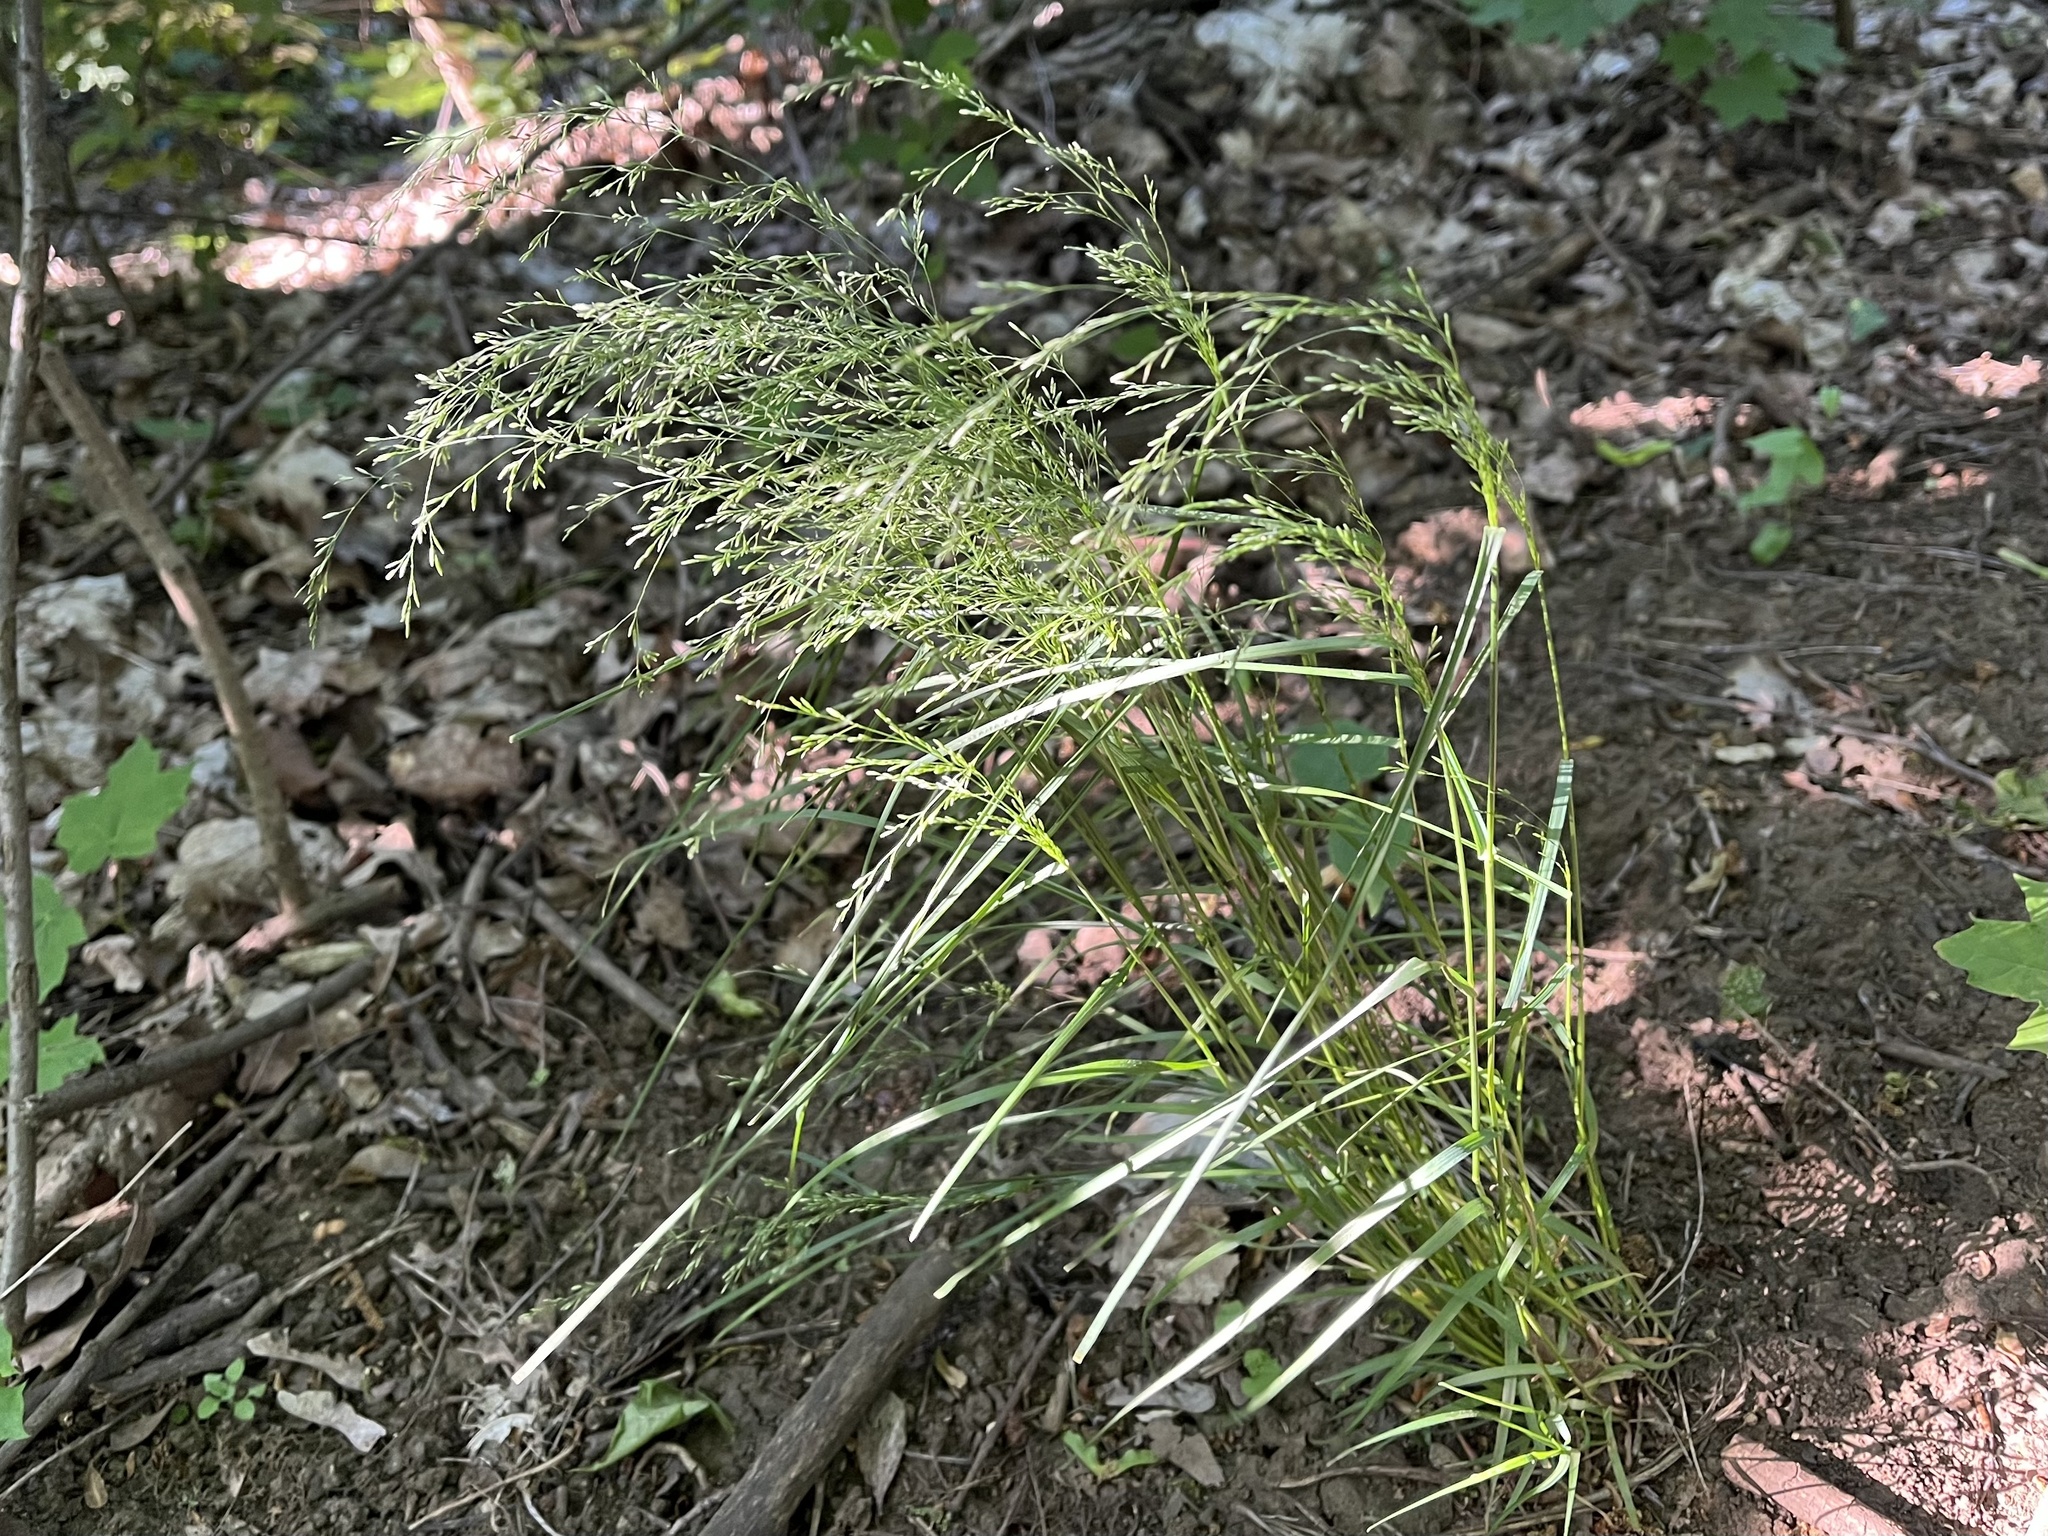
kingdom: Plantae
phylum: Tracheophyta
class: Liliopsida
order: Poales
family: Poaceae
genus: Poa
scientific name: Poa nemoralis
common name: Wood bluegrass
